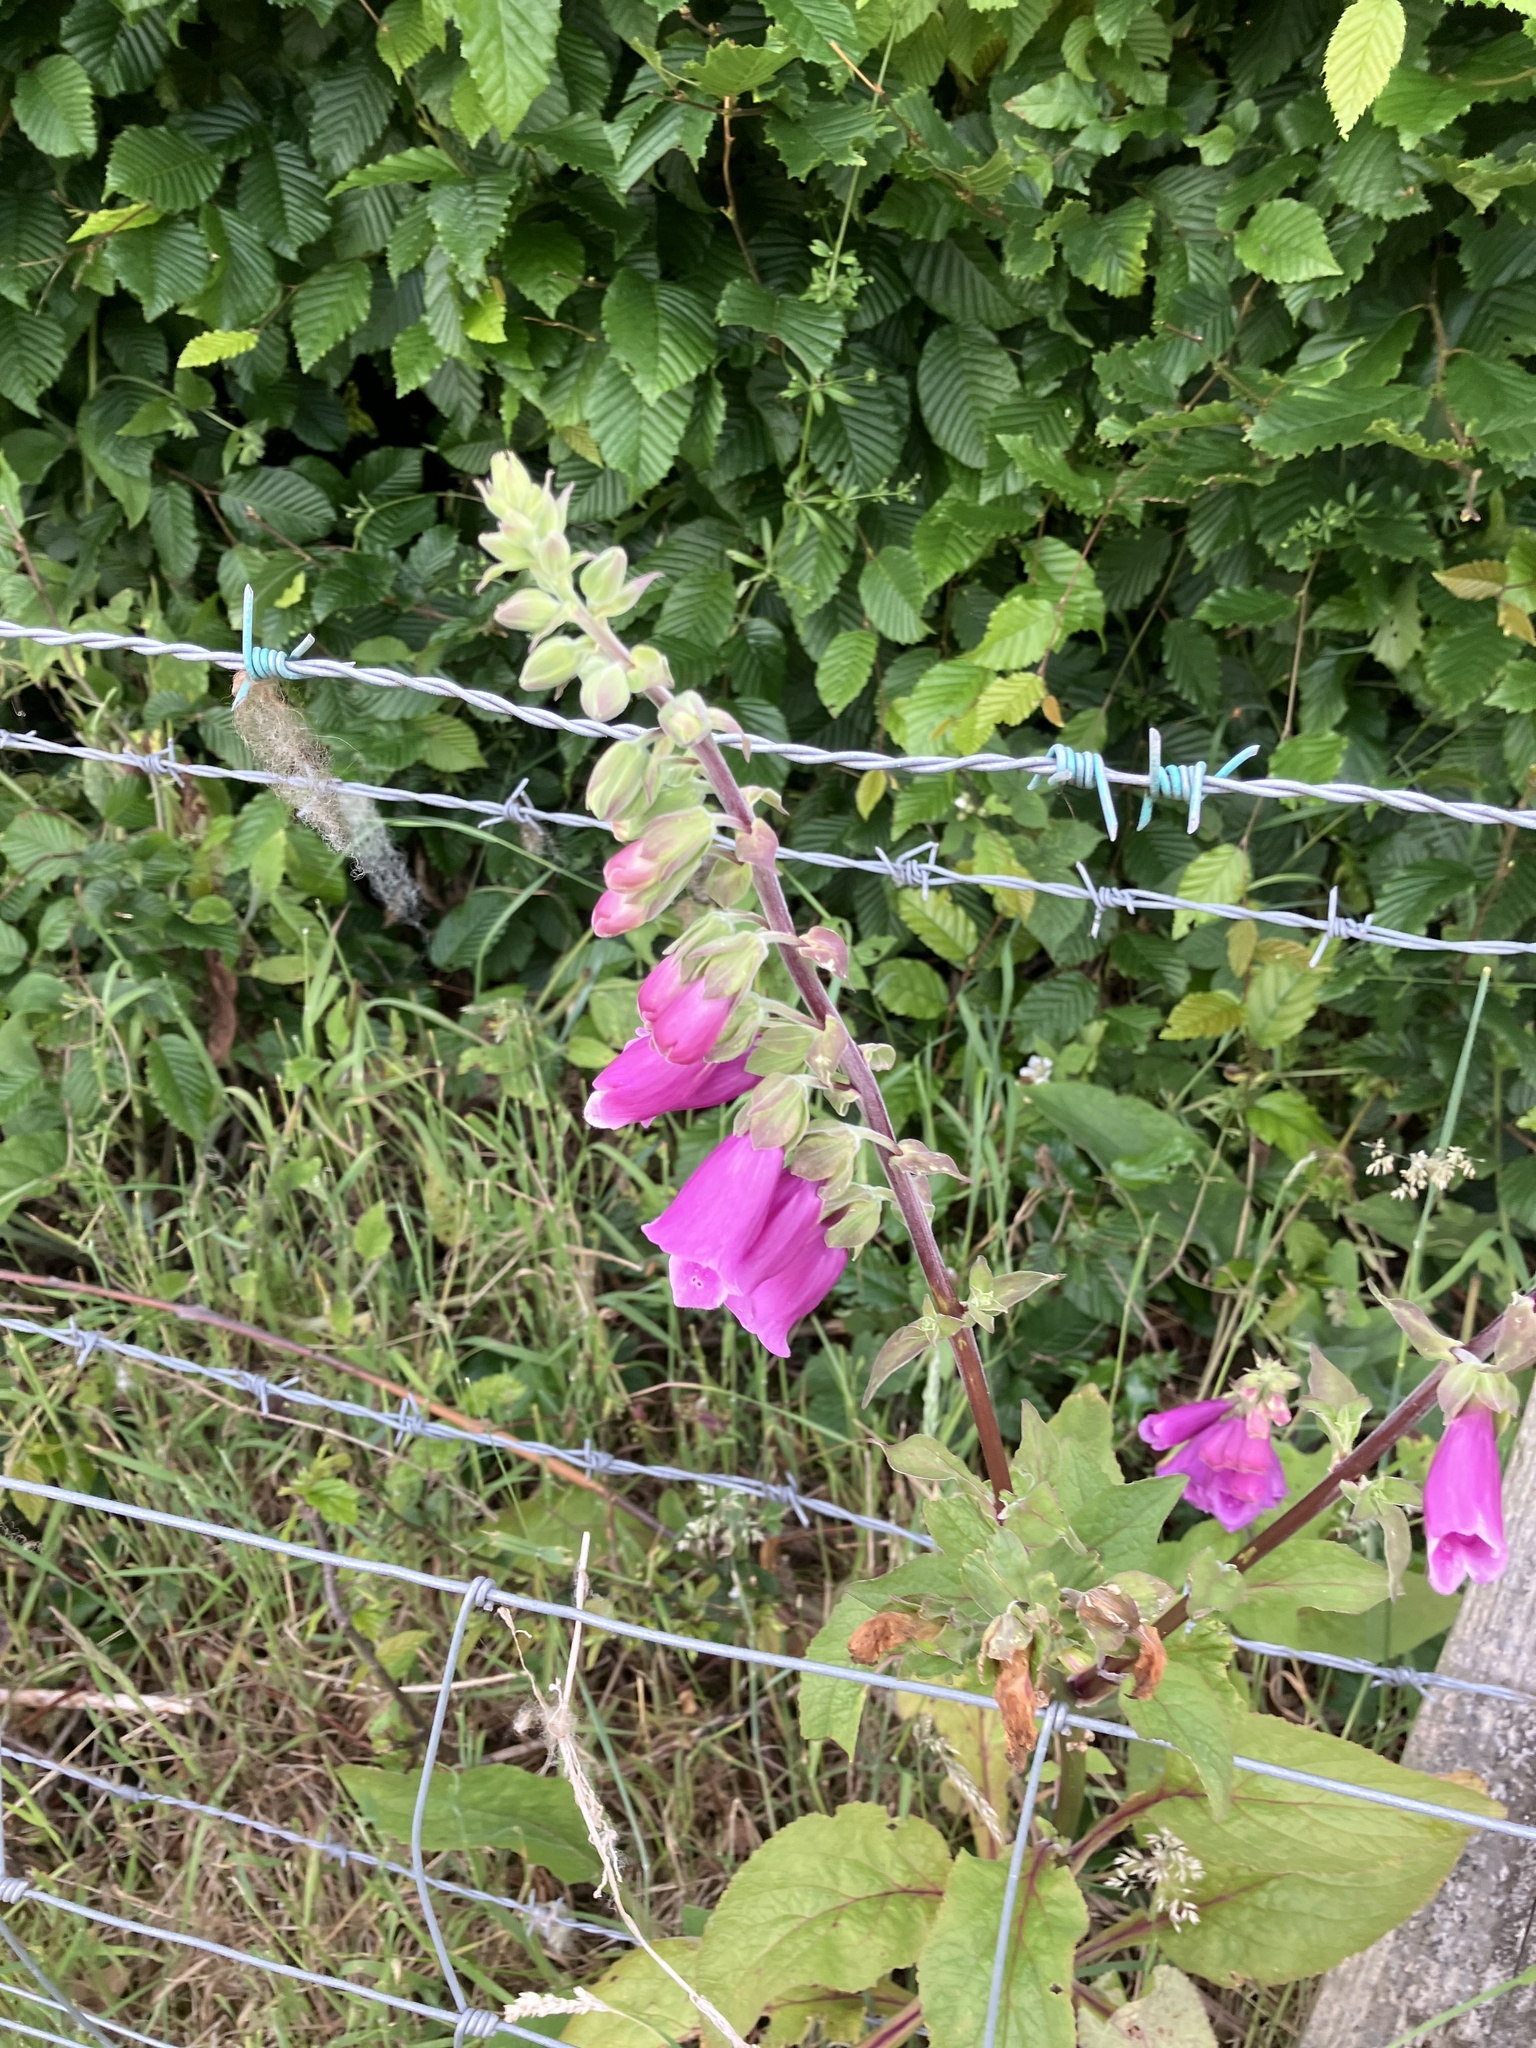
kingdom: Plantae
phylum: Tracheophyta
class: Magnoliopsida
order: Lamiales
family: Plantaginaceae
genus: Digitalis
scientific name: Digitalis purpurea
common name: Foxglove
